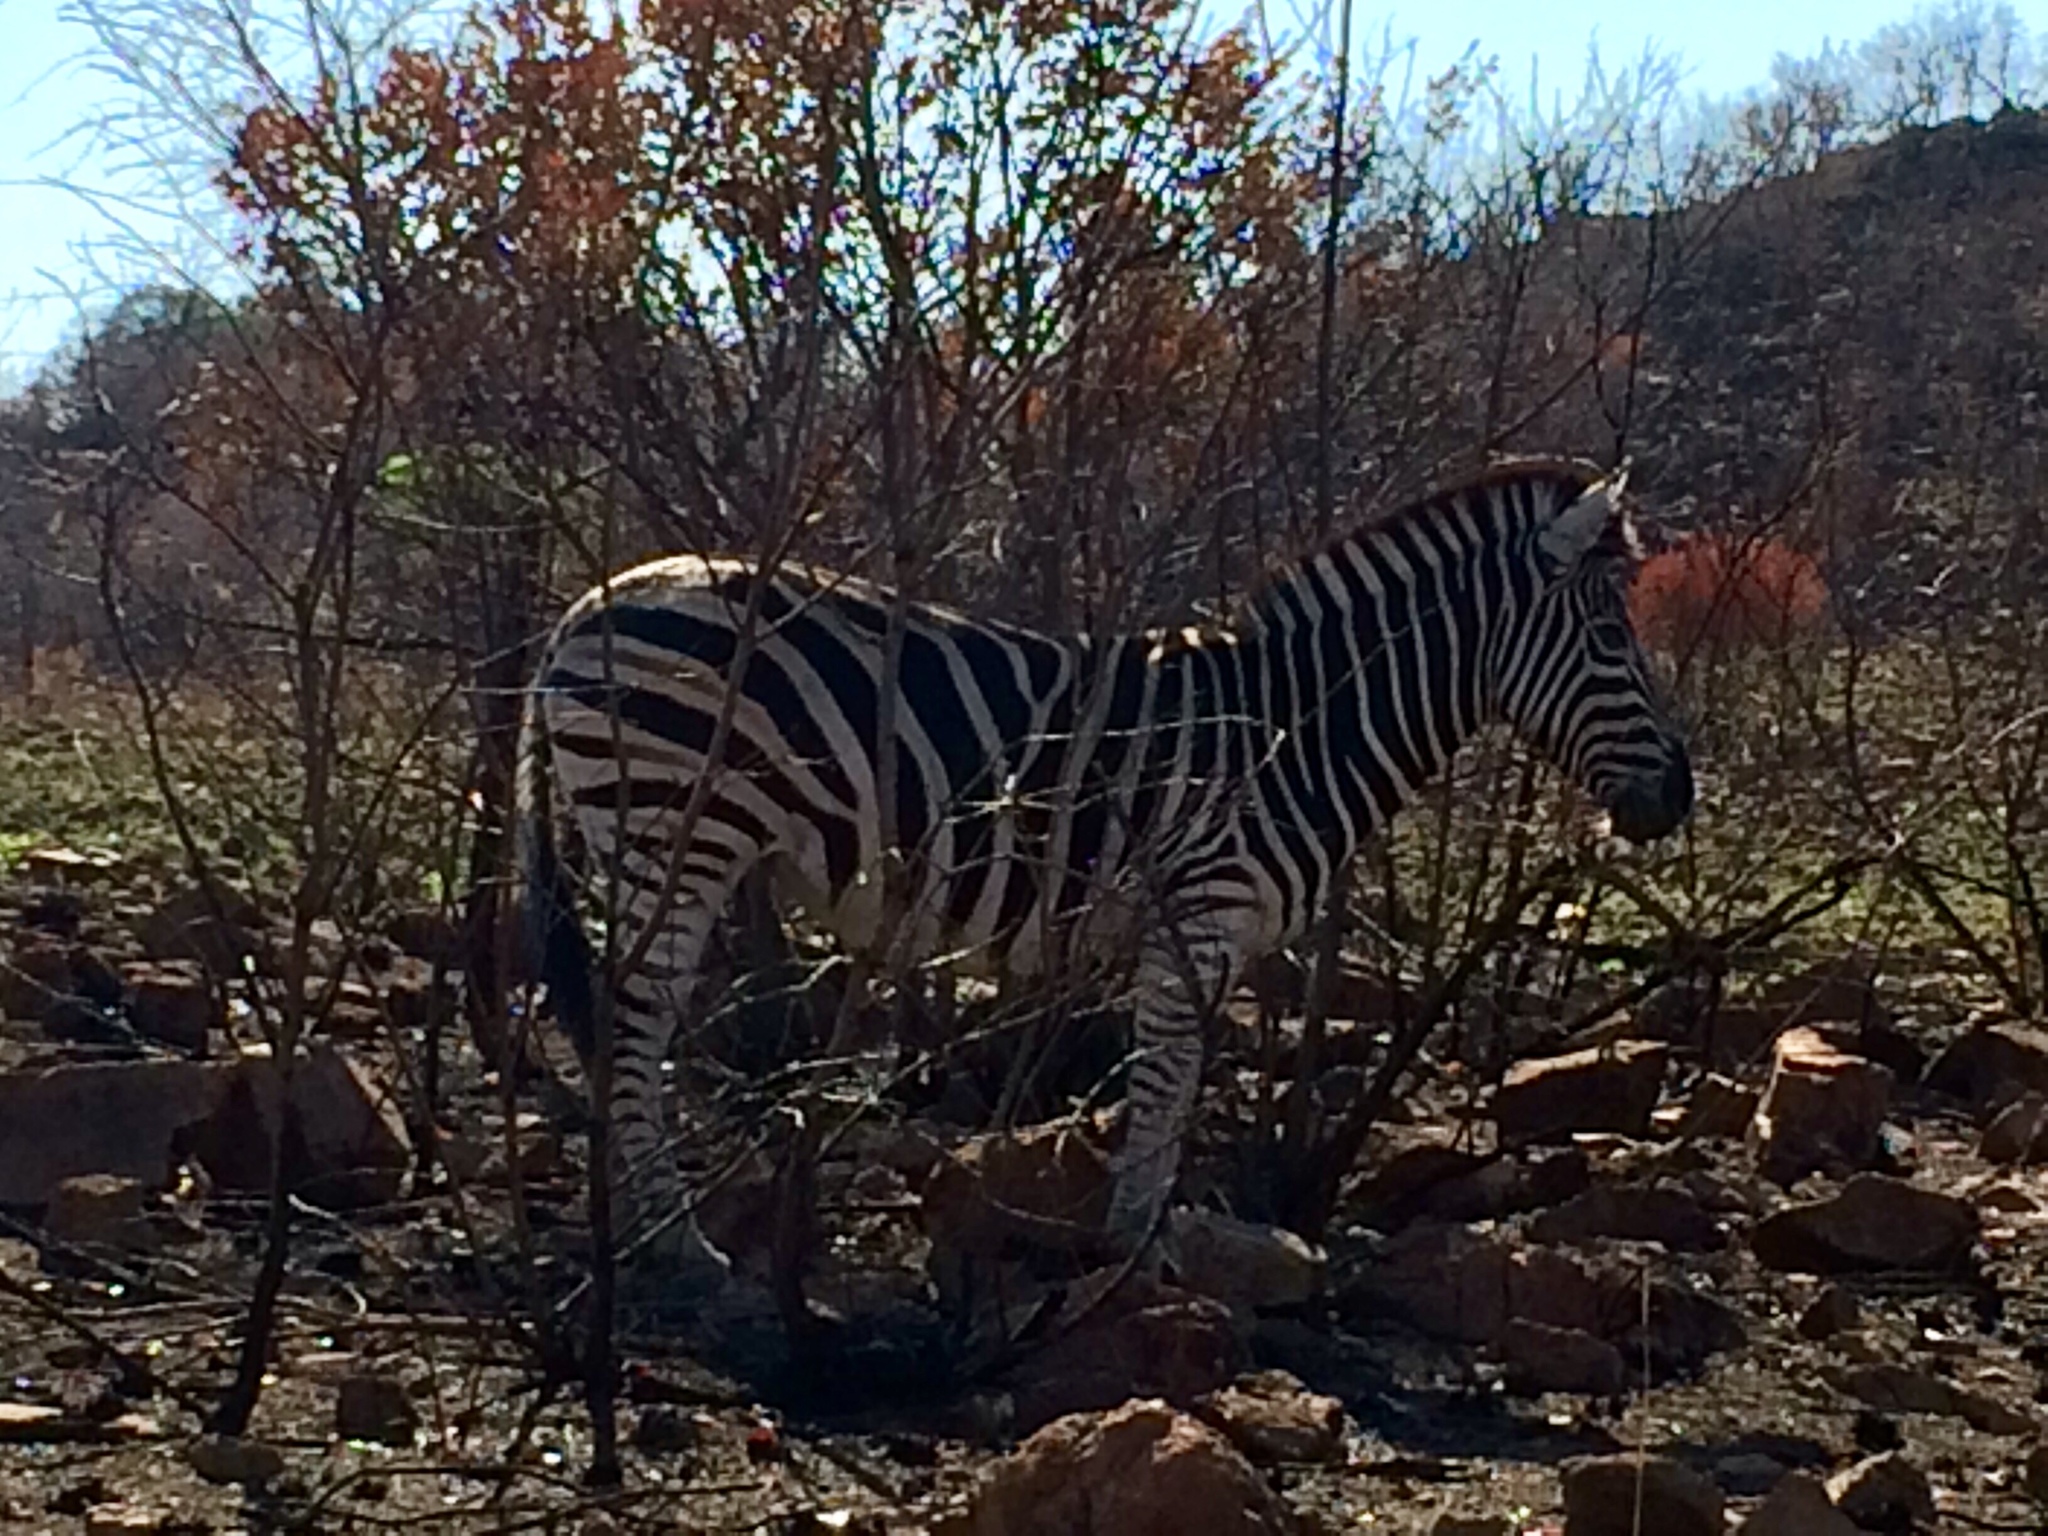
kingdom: Animalia
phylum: Chordata
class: Mammalia
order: Perissodactyla
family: Equidae
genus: Equus
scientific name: Equus quagga
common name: Plains zebra
